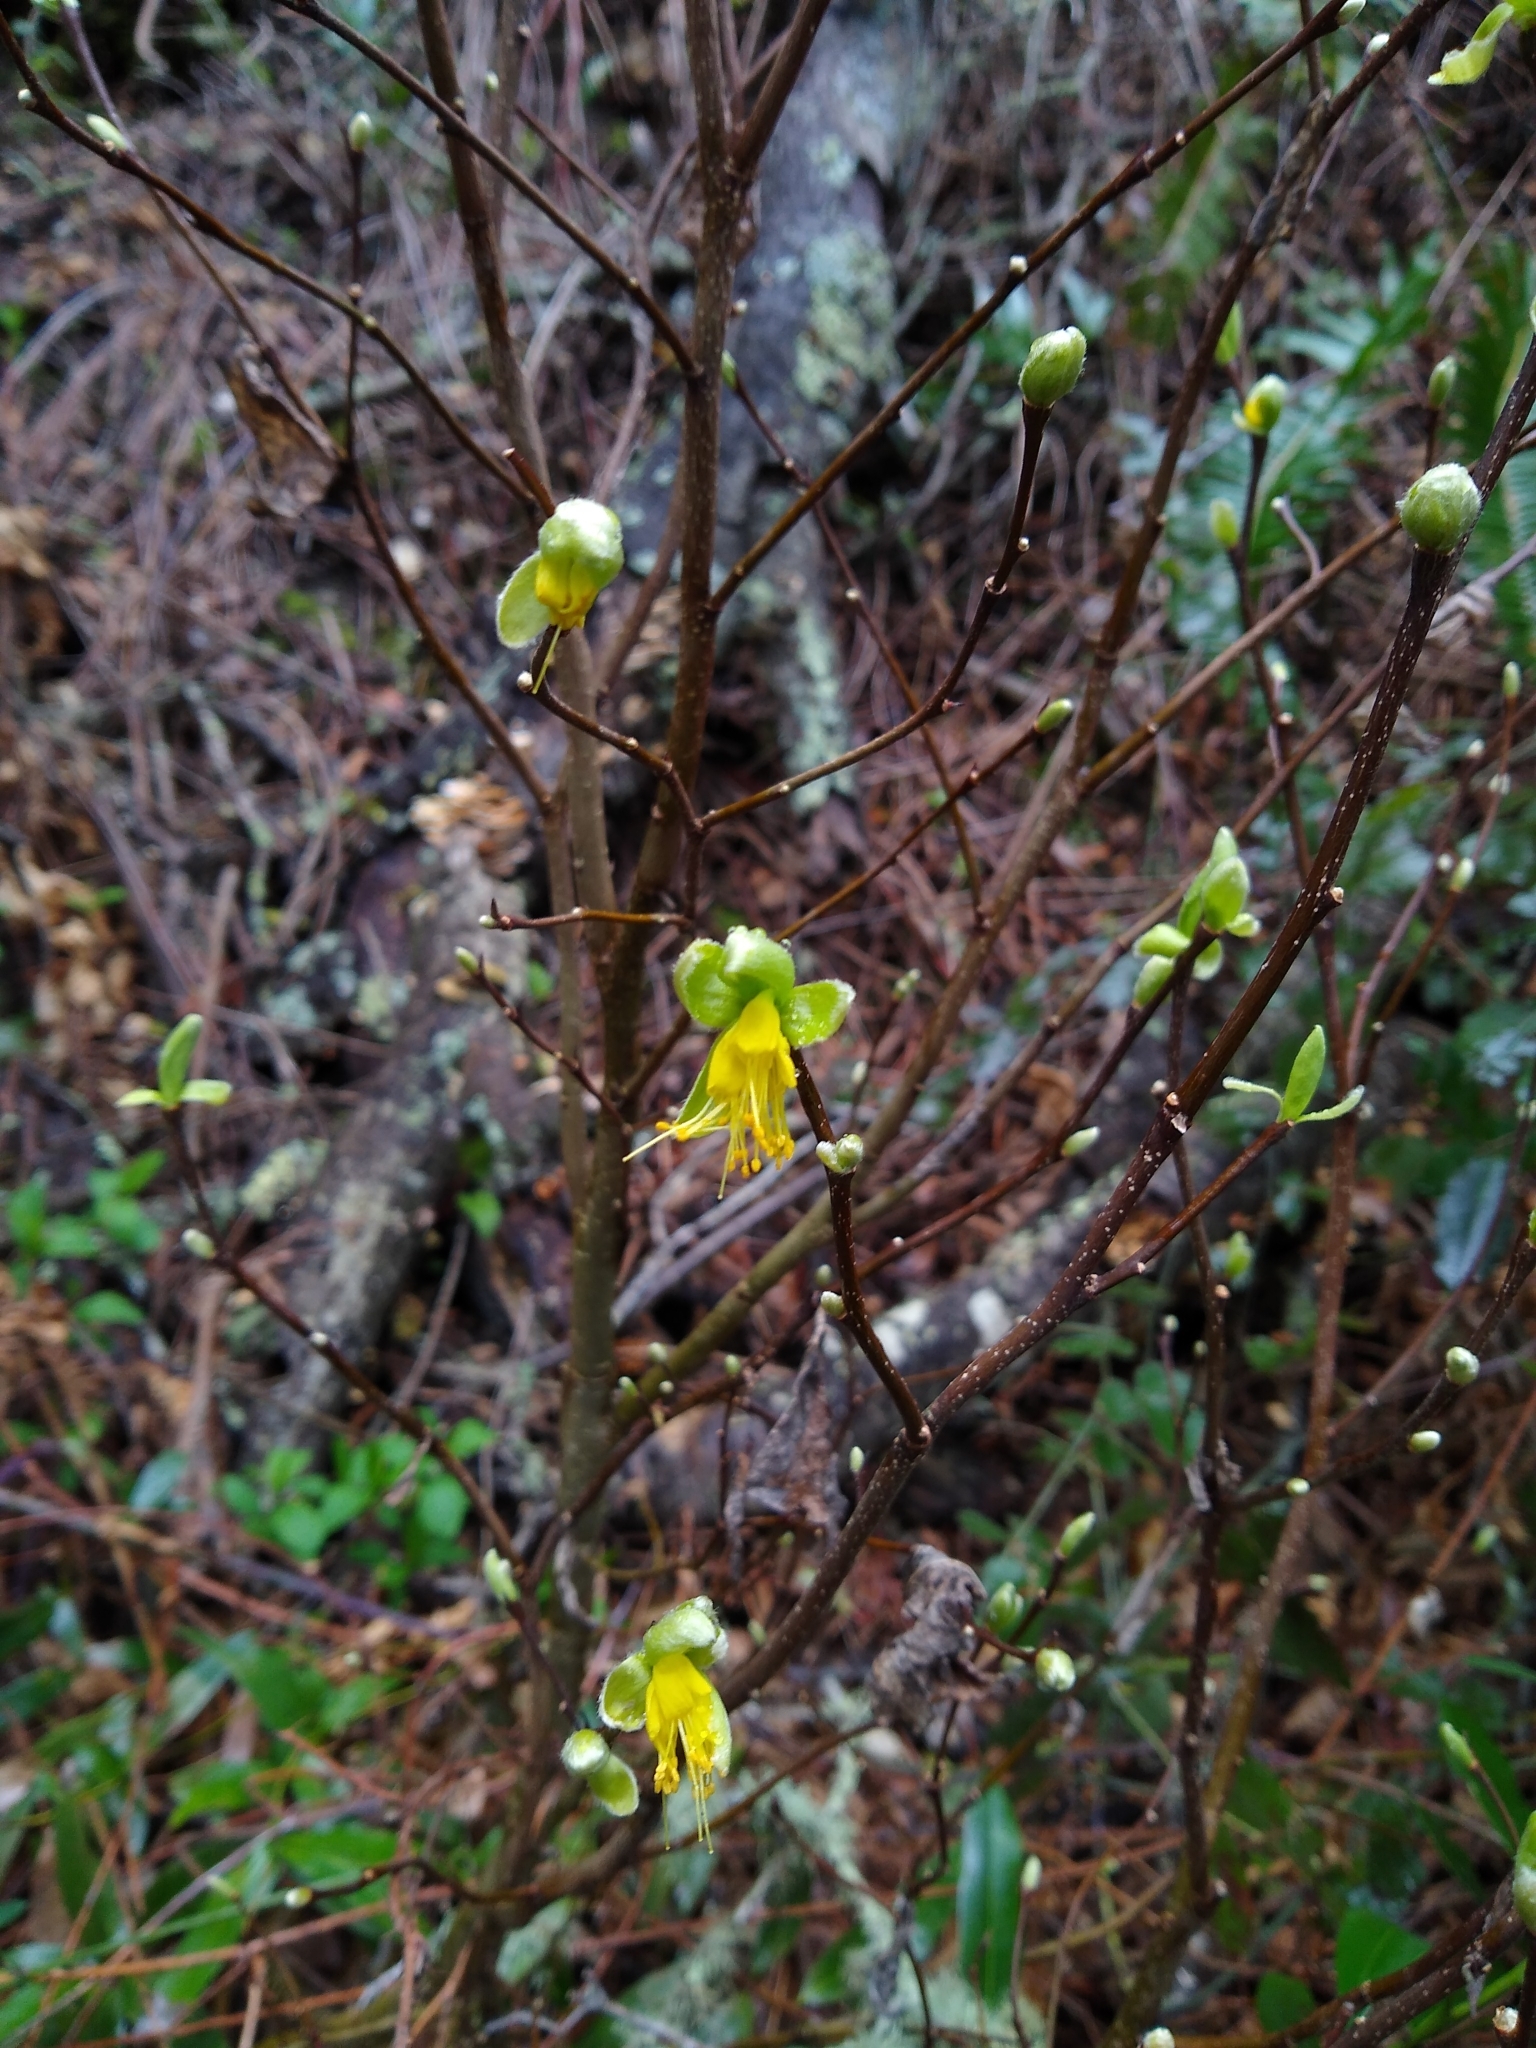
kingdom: Plantae
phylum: Tracheophyta
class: Magnoliopsida
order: Malvales
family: Thymelaeaceae
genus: Dirca
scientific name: Dirca occidentalis
